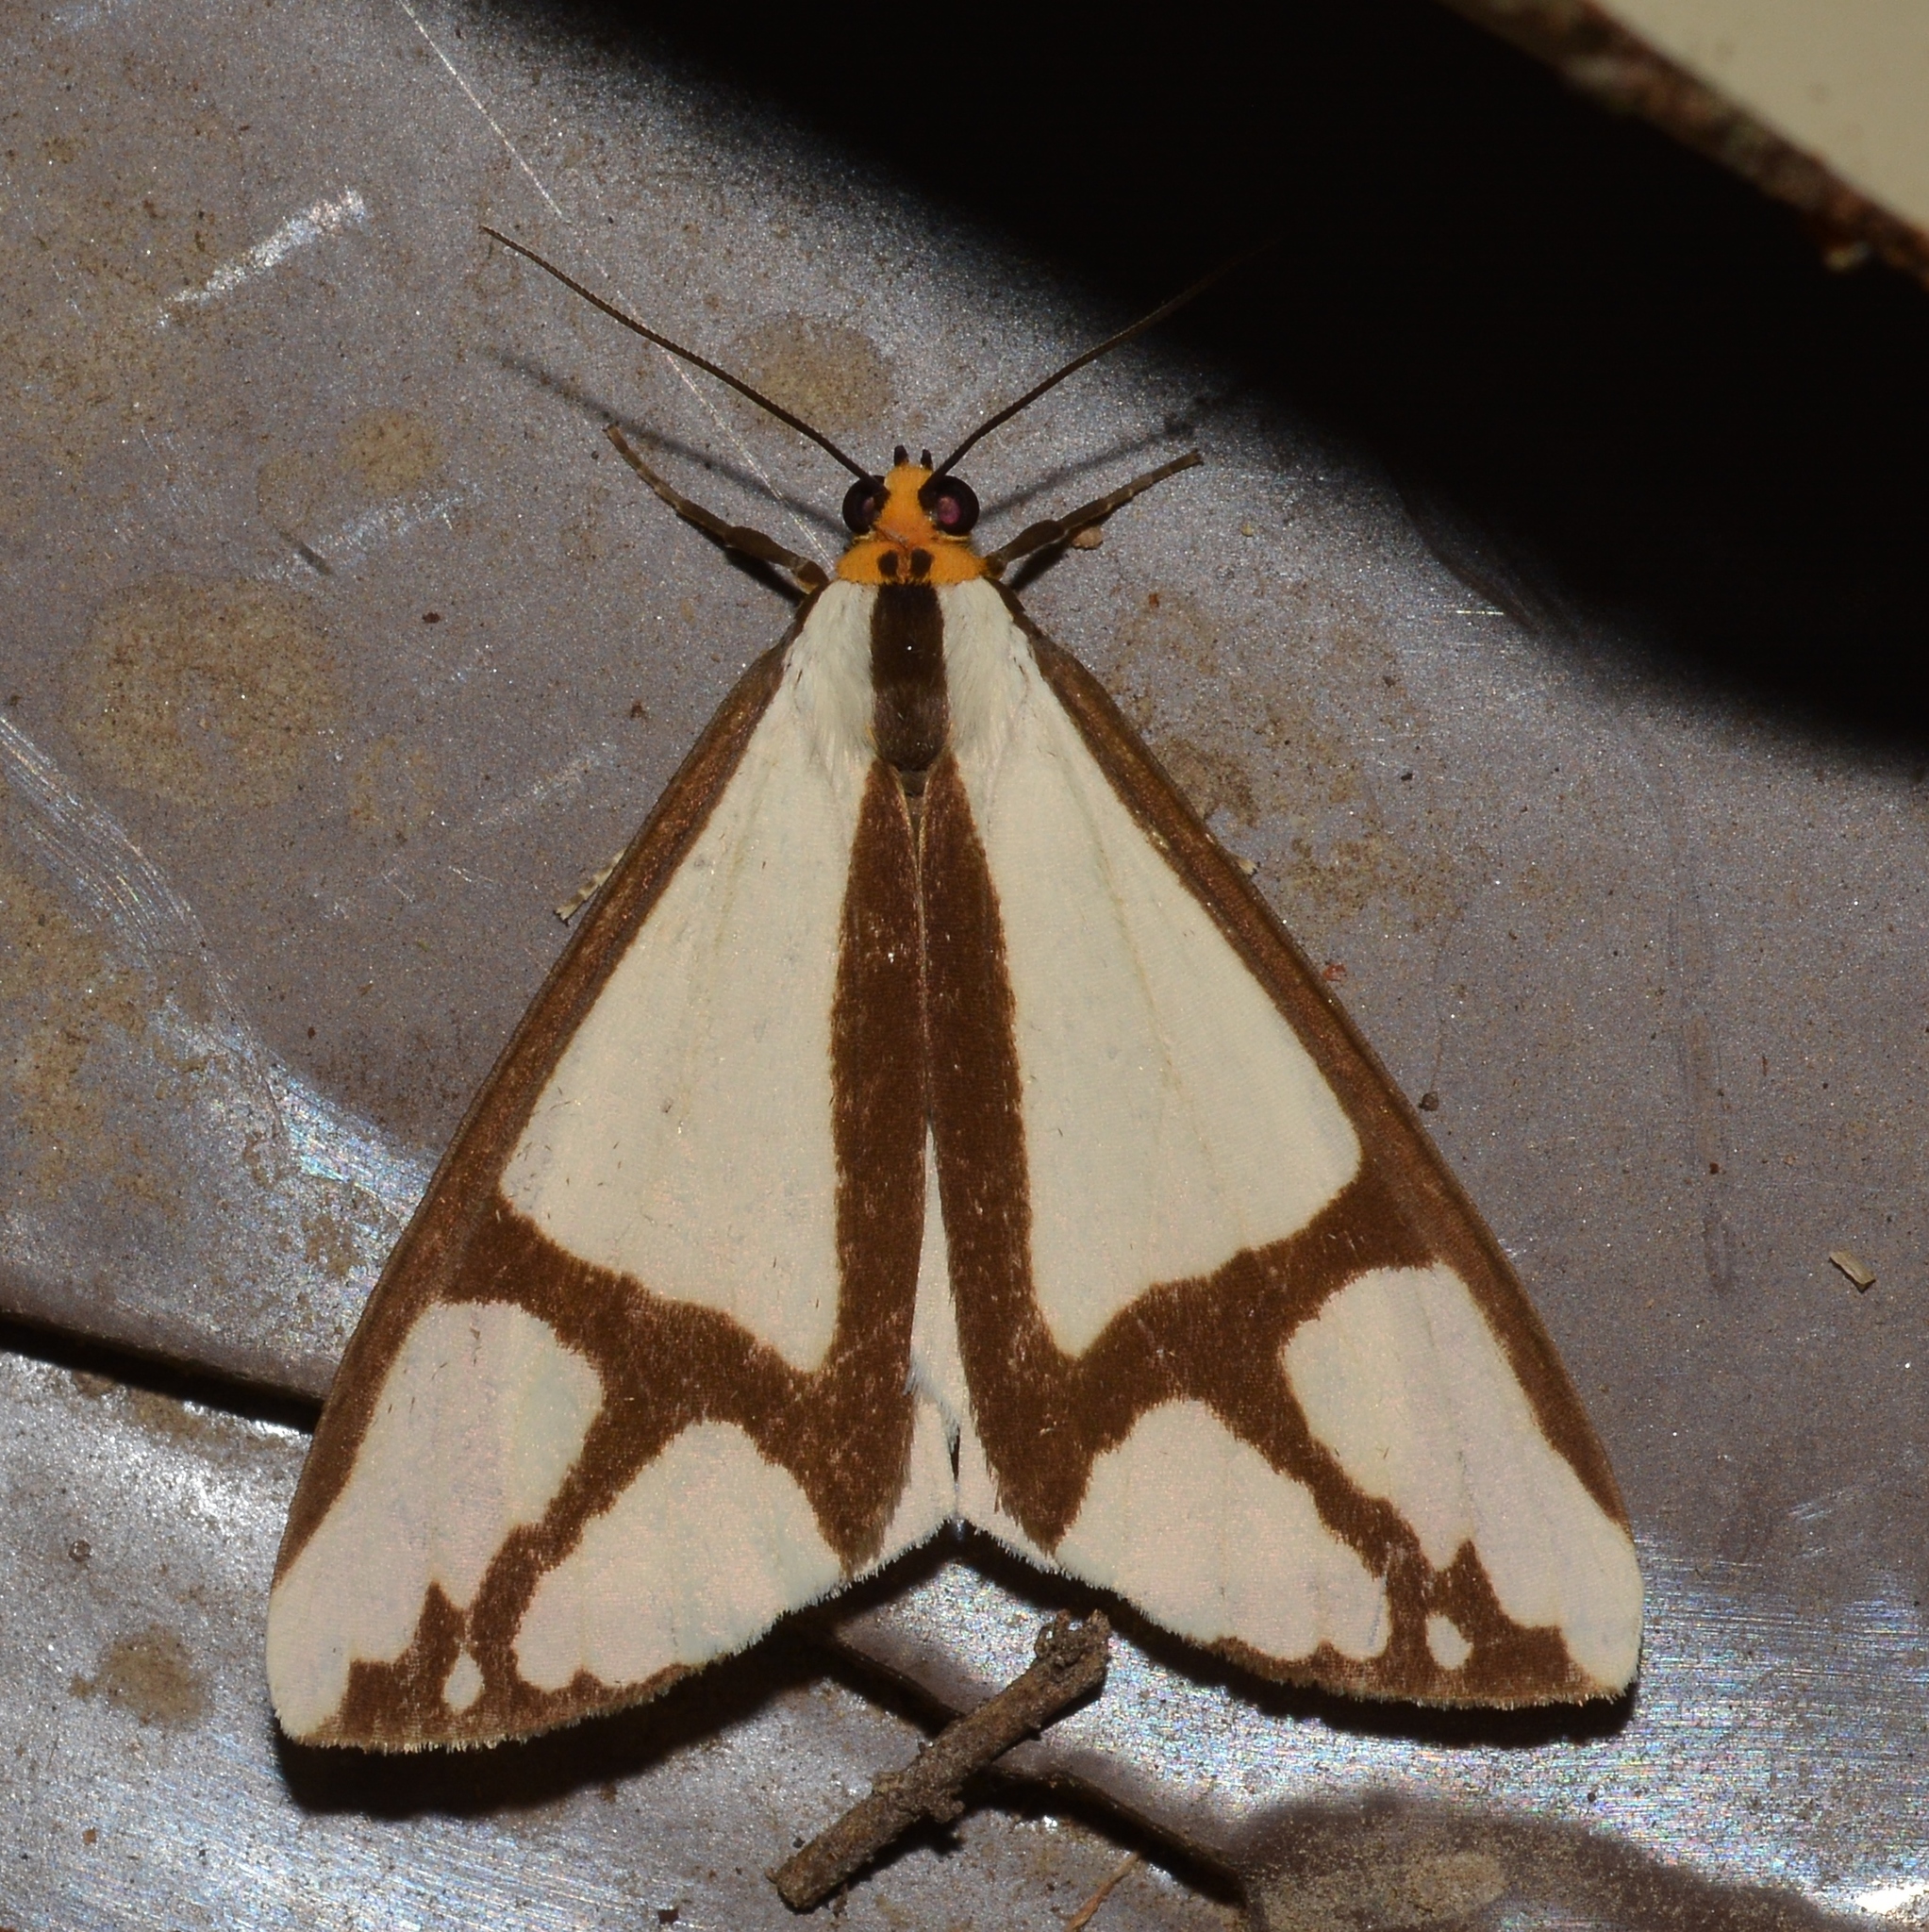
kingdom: Animalia
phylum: Arthropoda
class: Insecta
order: Lepidoptera
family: Erebidae
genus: Haploa
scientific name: Haploa contigua
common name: Neighbor moth
